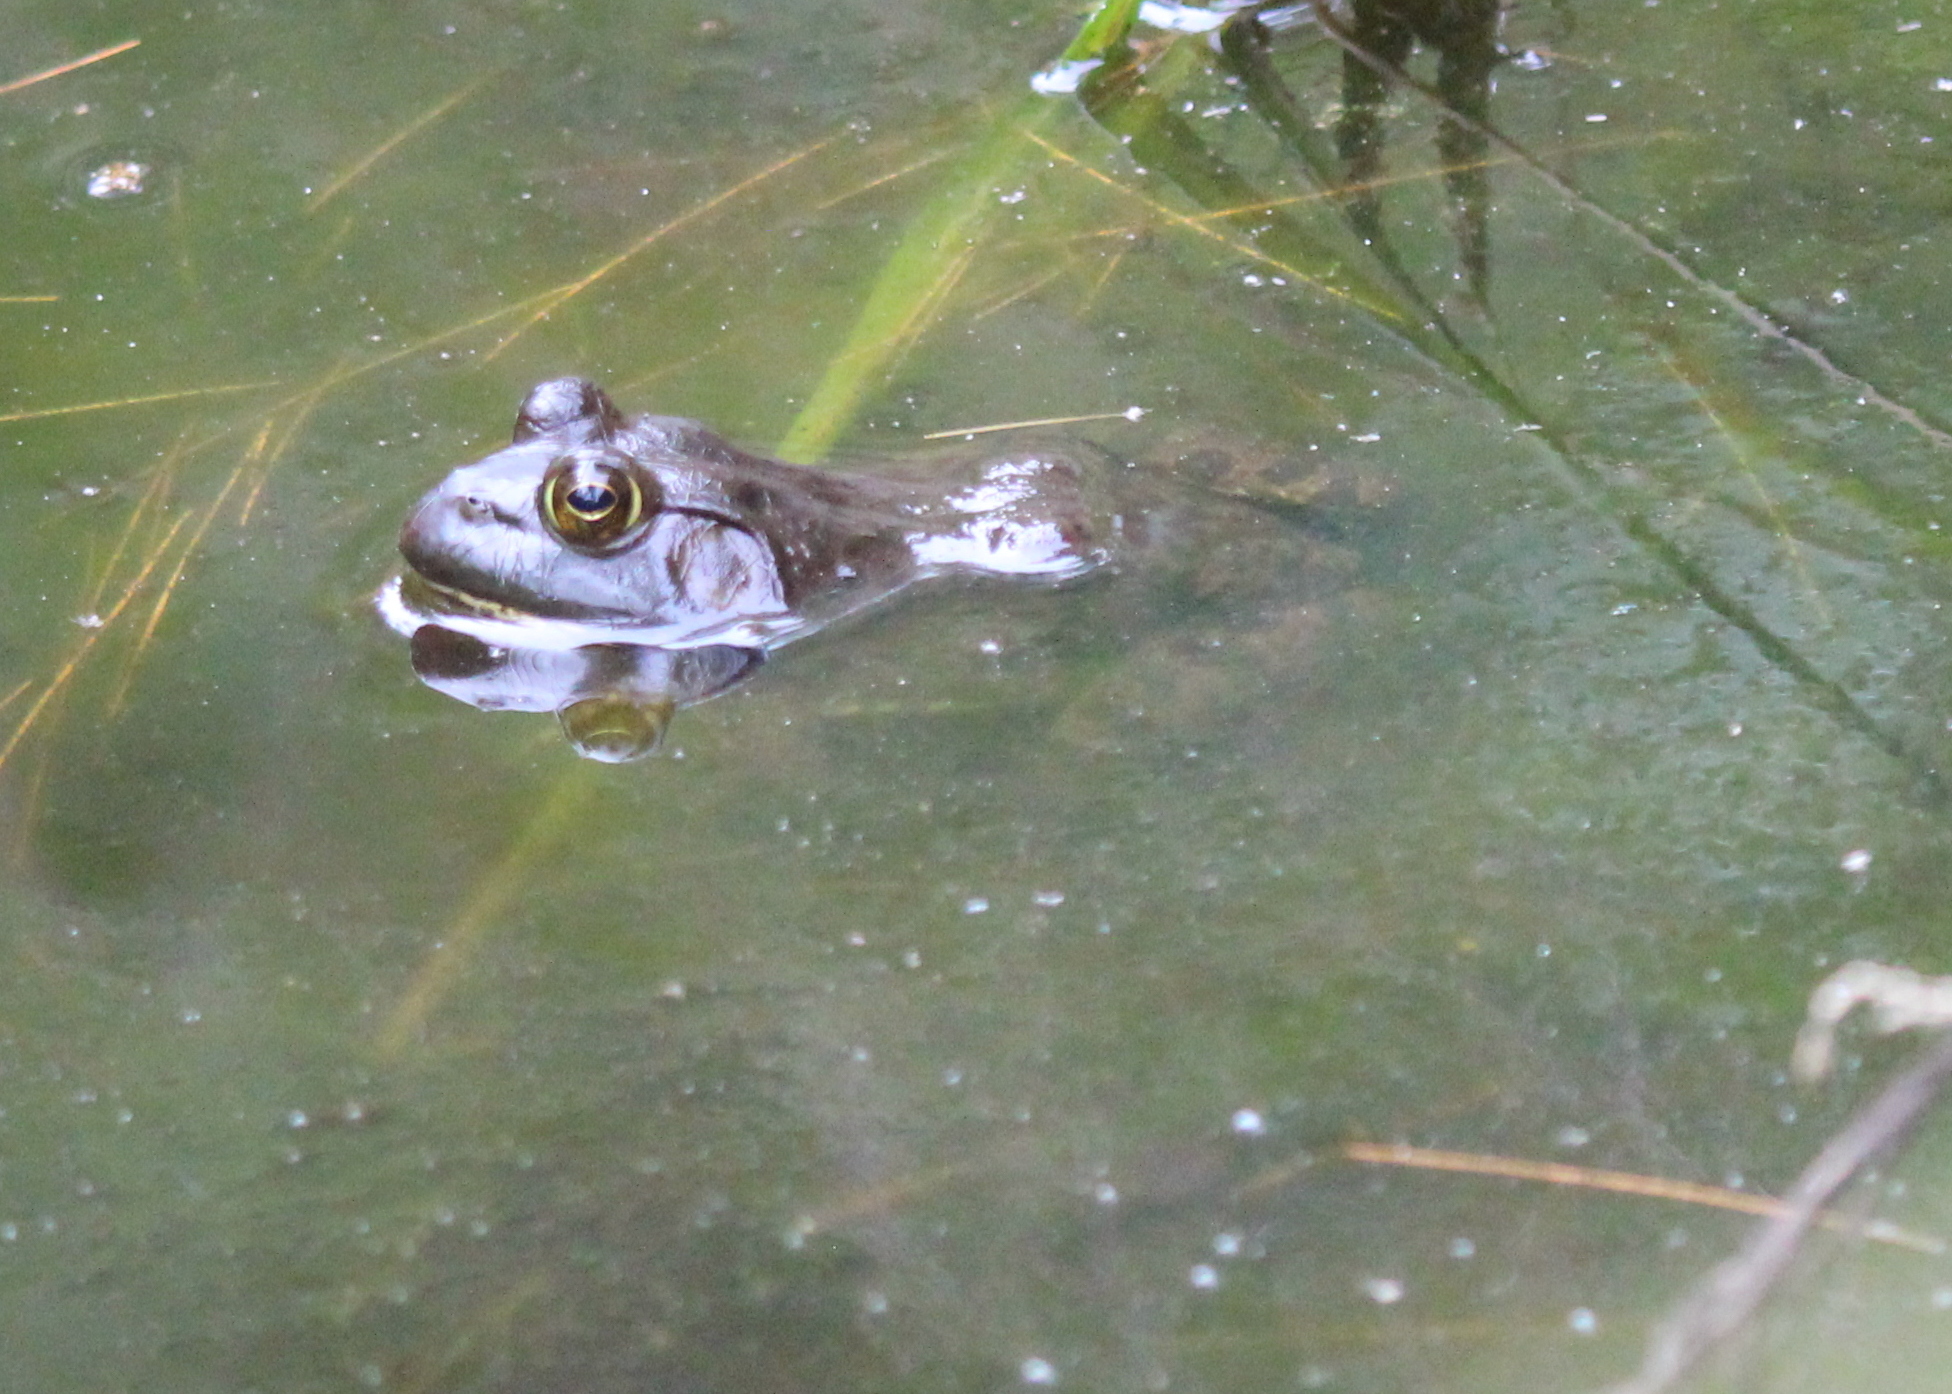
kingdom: Animalia
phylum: Chordata
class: Amphibia
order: Anura
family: Ranidae
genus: Lithobates
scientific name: Lithobates catesbeianus
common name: American bullfrog
